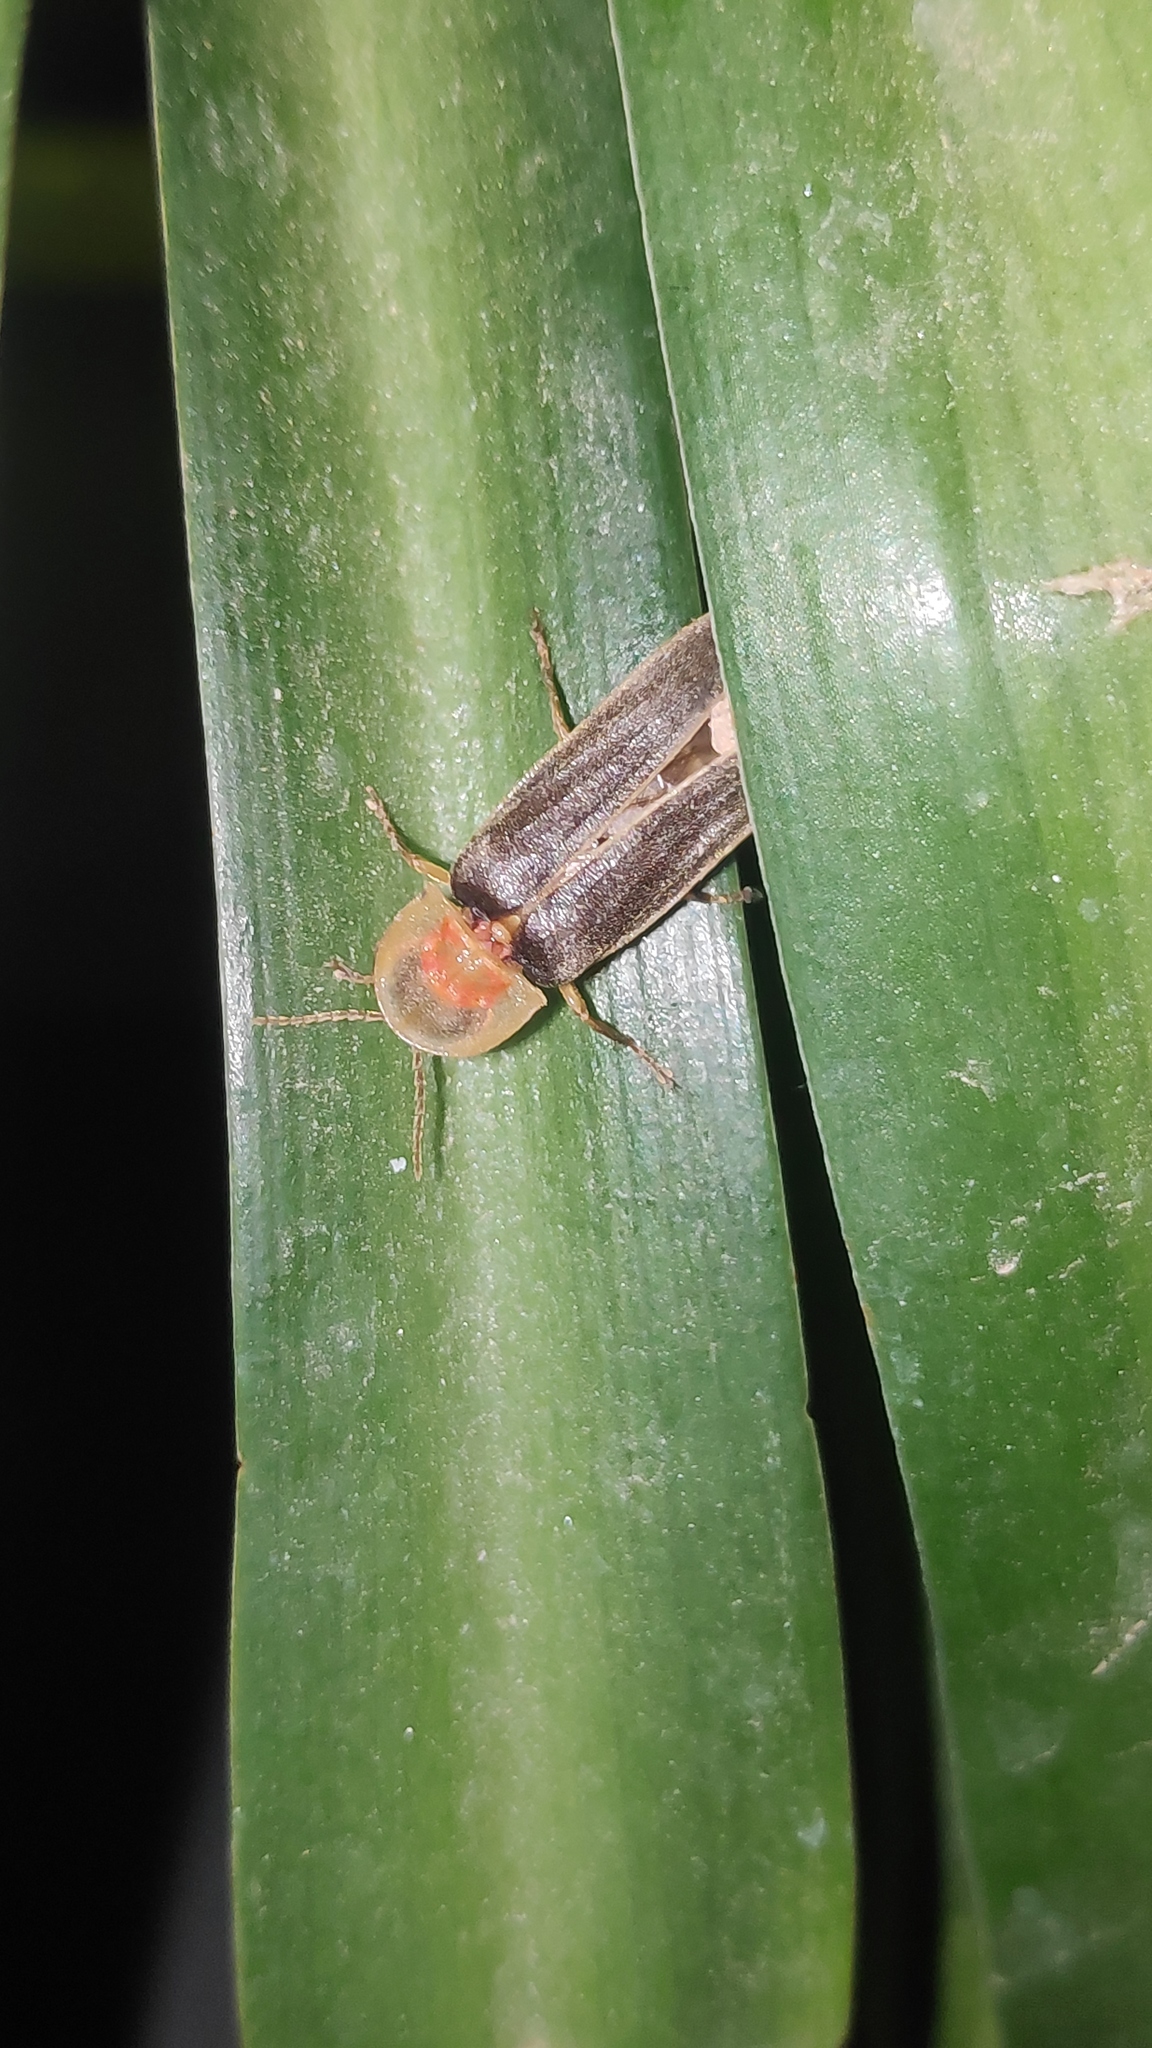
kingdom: Animalia
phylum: Arthropoda
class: Insecta
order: Coleoptera
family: Lampyridae
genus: Nyctophila
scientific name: Nyctophila reichii
